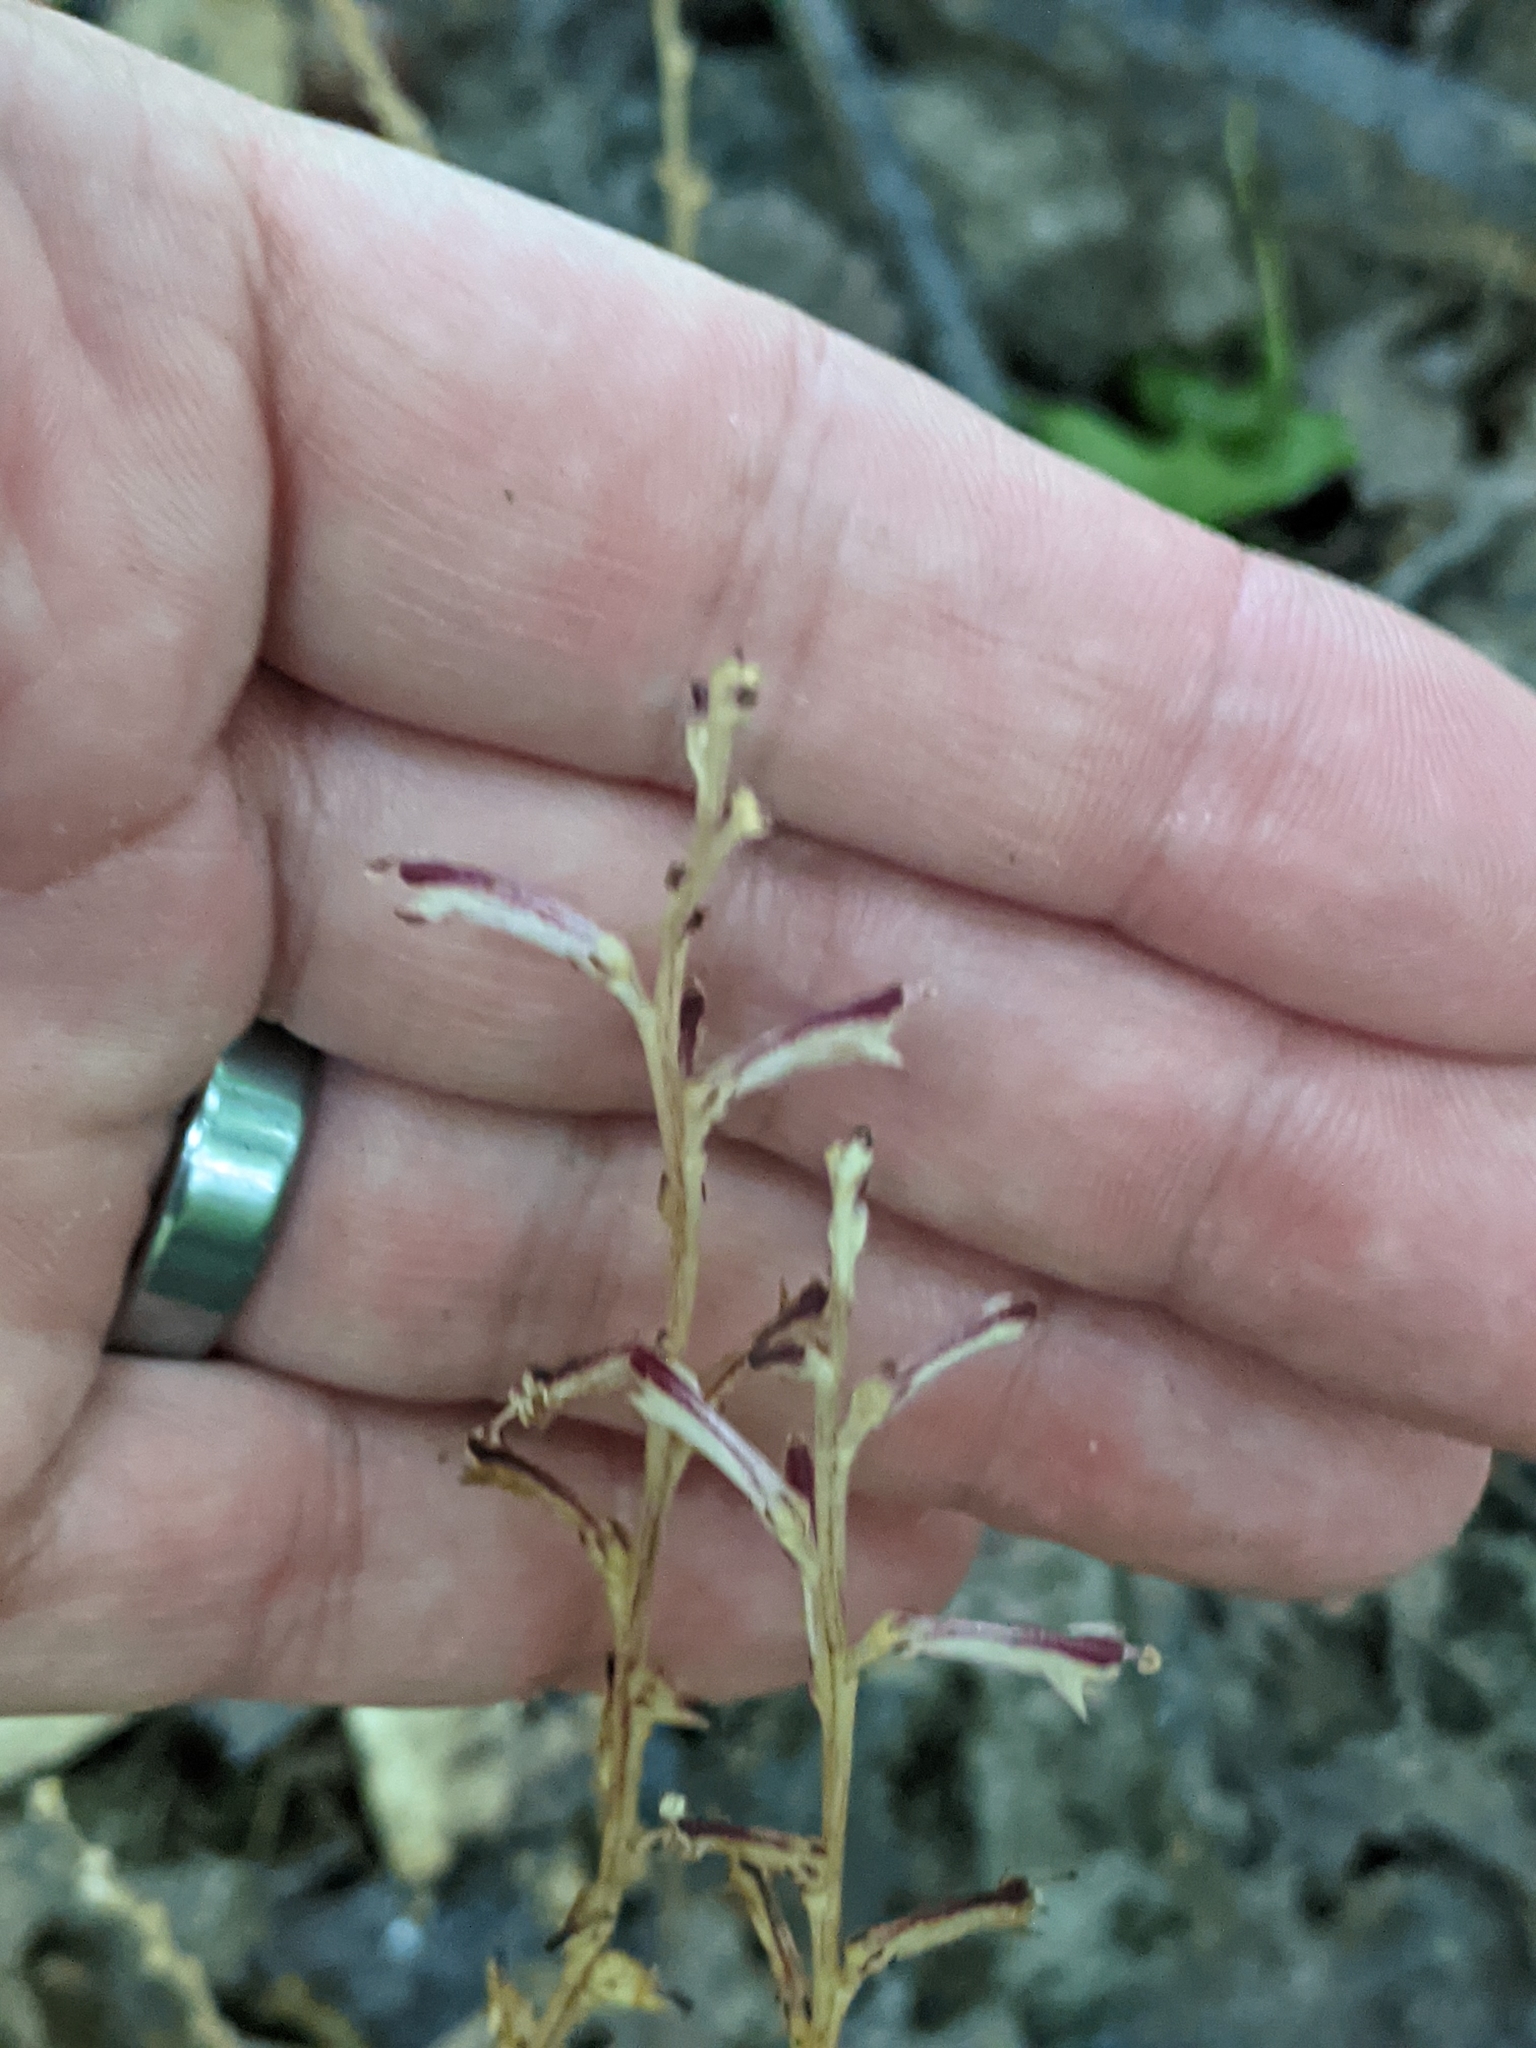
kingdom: Plantae
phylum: Tracheophyta
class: Magnoliopsida
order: Lamiales
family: Orobanchaceae
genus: Epifagus
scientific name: Epifagus virginiana
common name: Beechdrops
